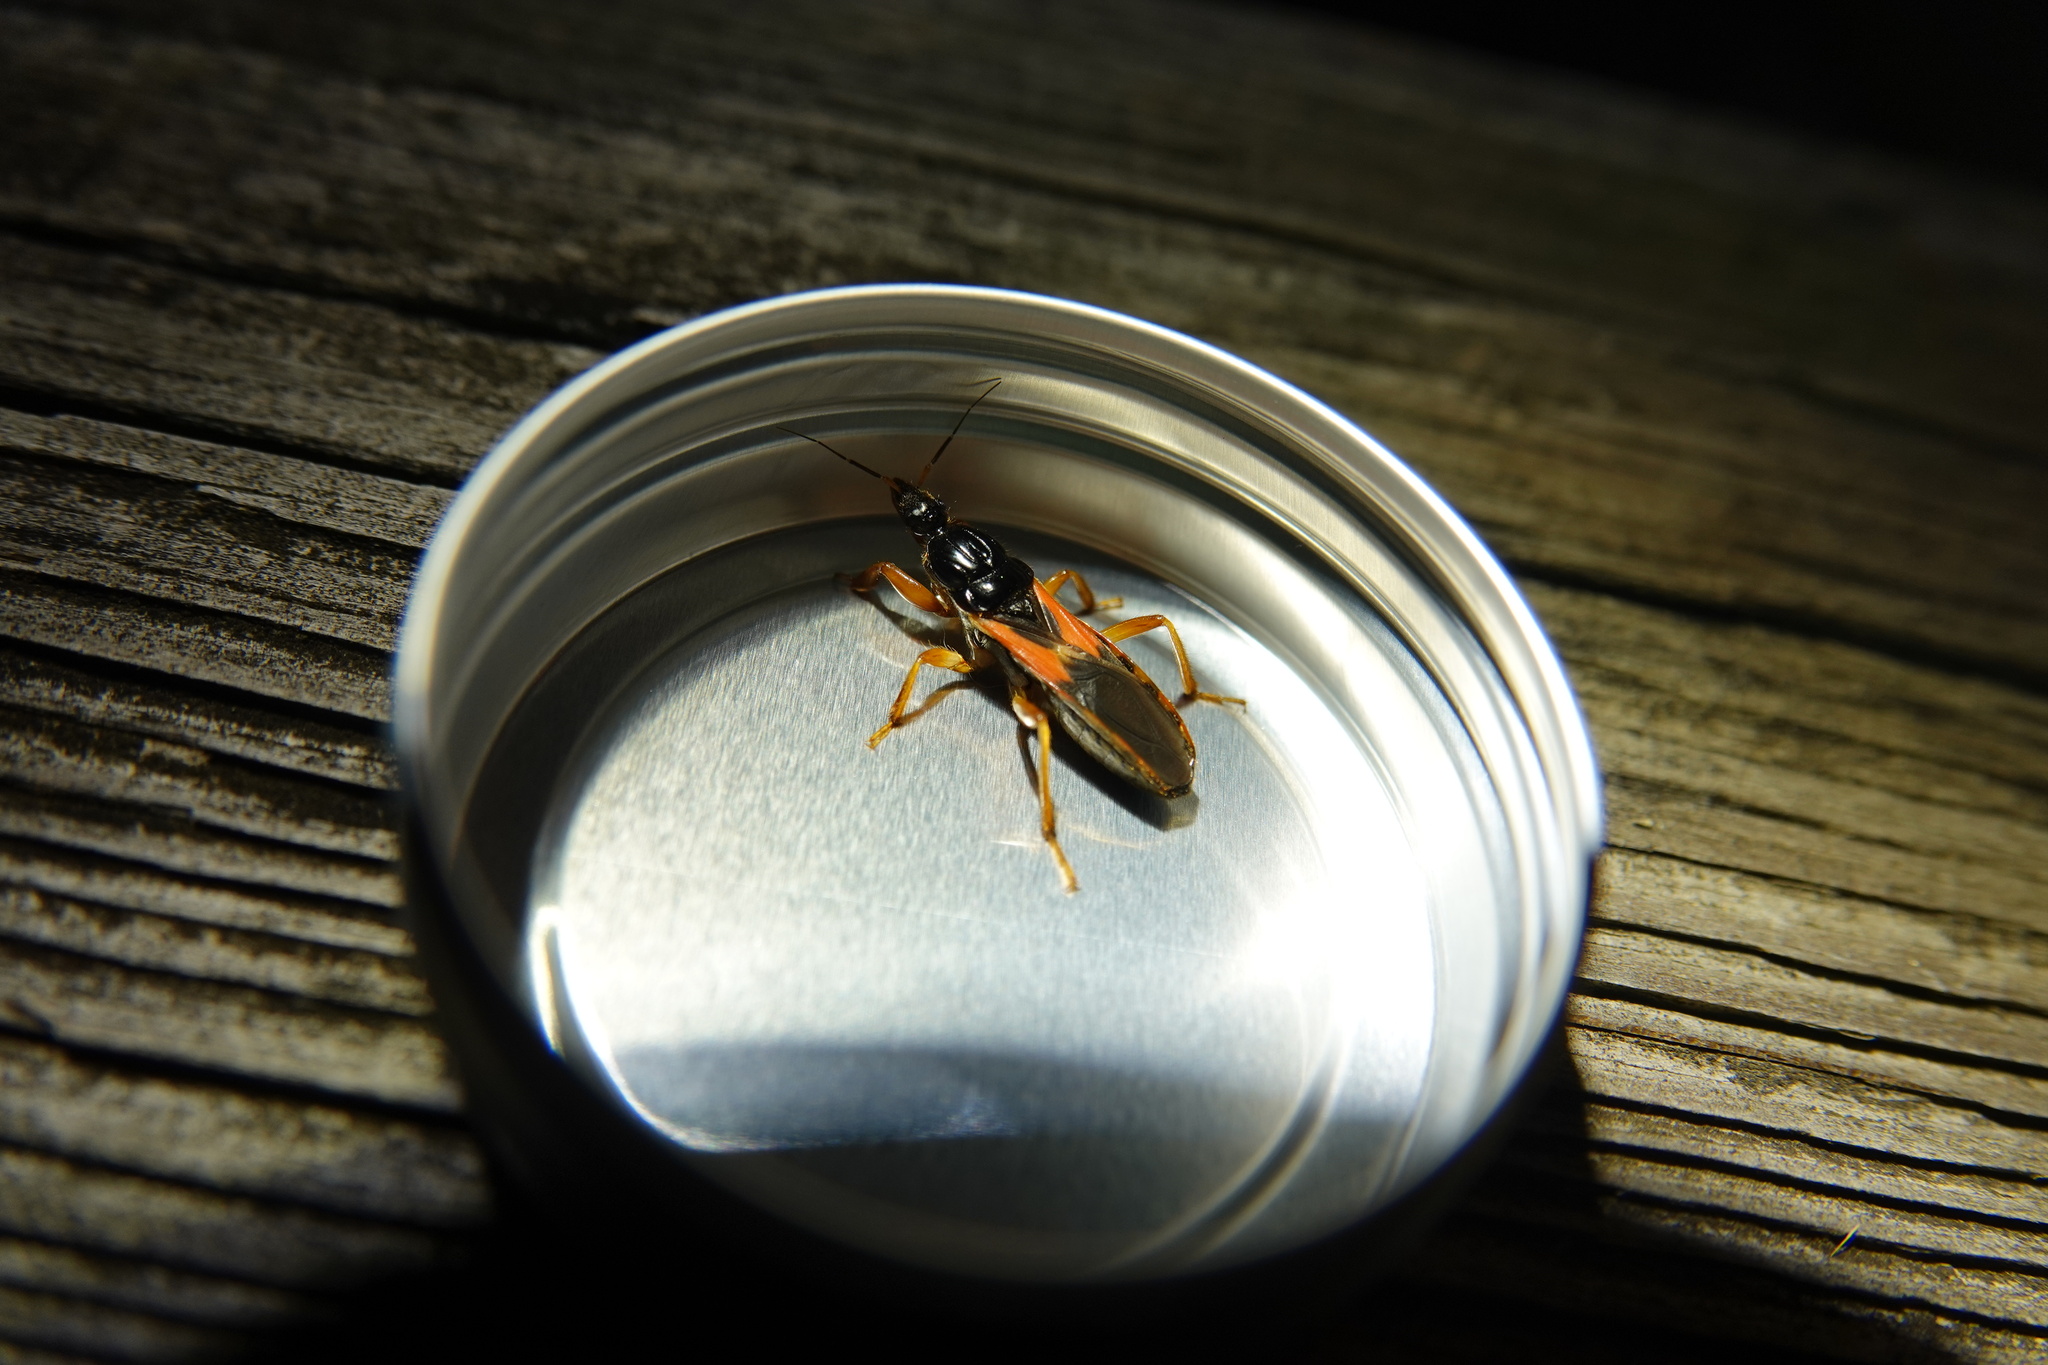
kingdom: Animalia
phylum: Arthropoda
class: Insecta
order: Hemiptera
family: Reduviidae
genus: Sirthenea
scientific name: Sirthenea stria
